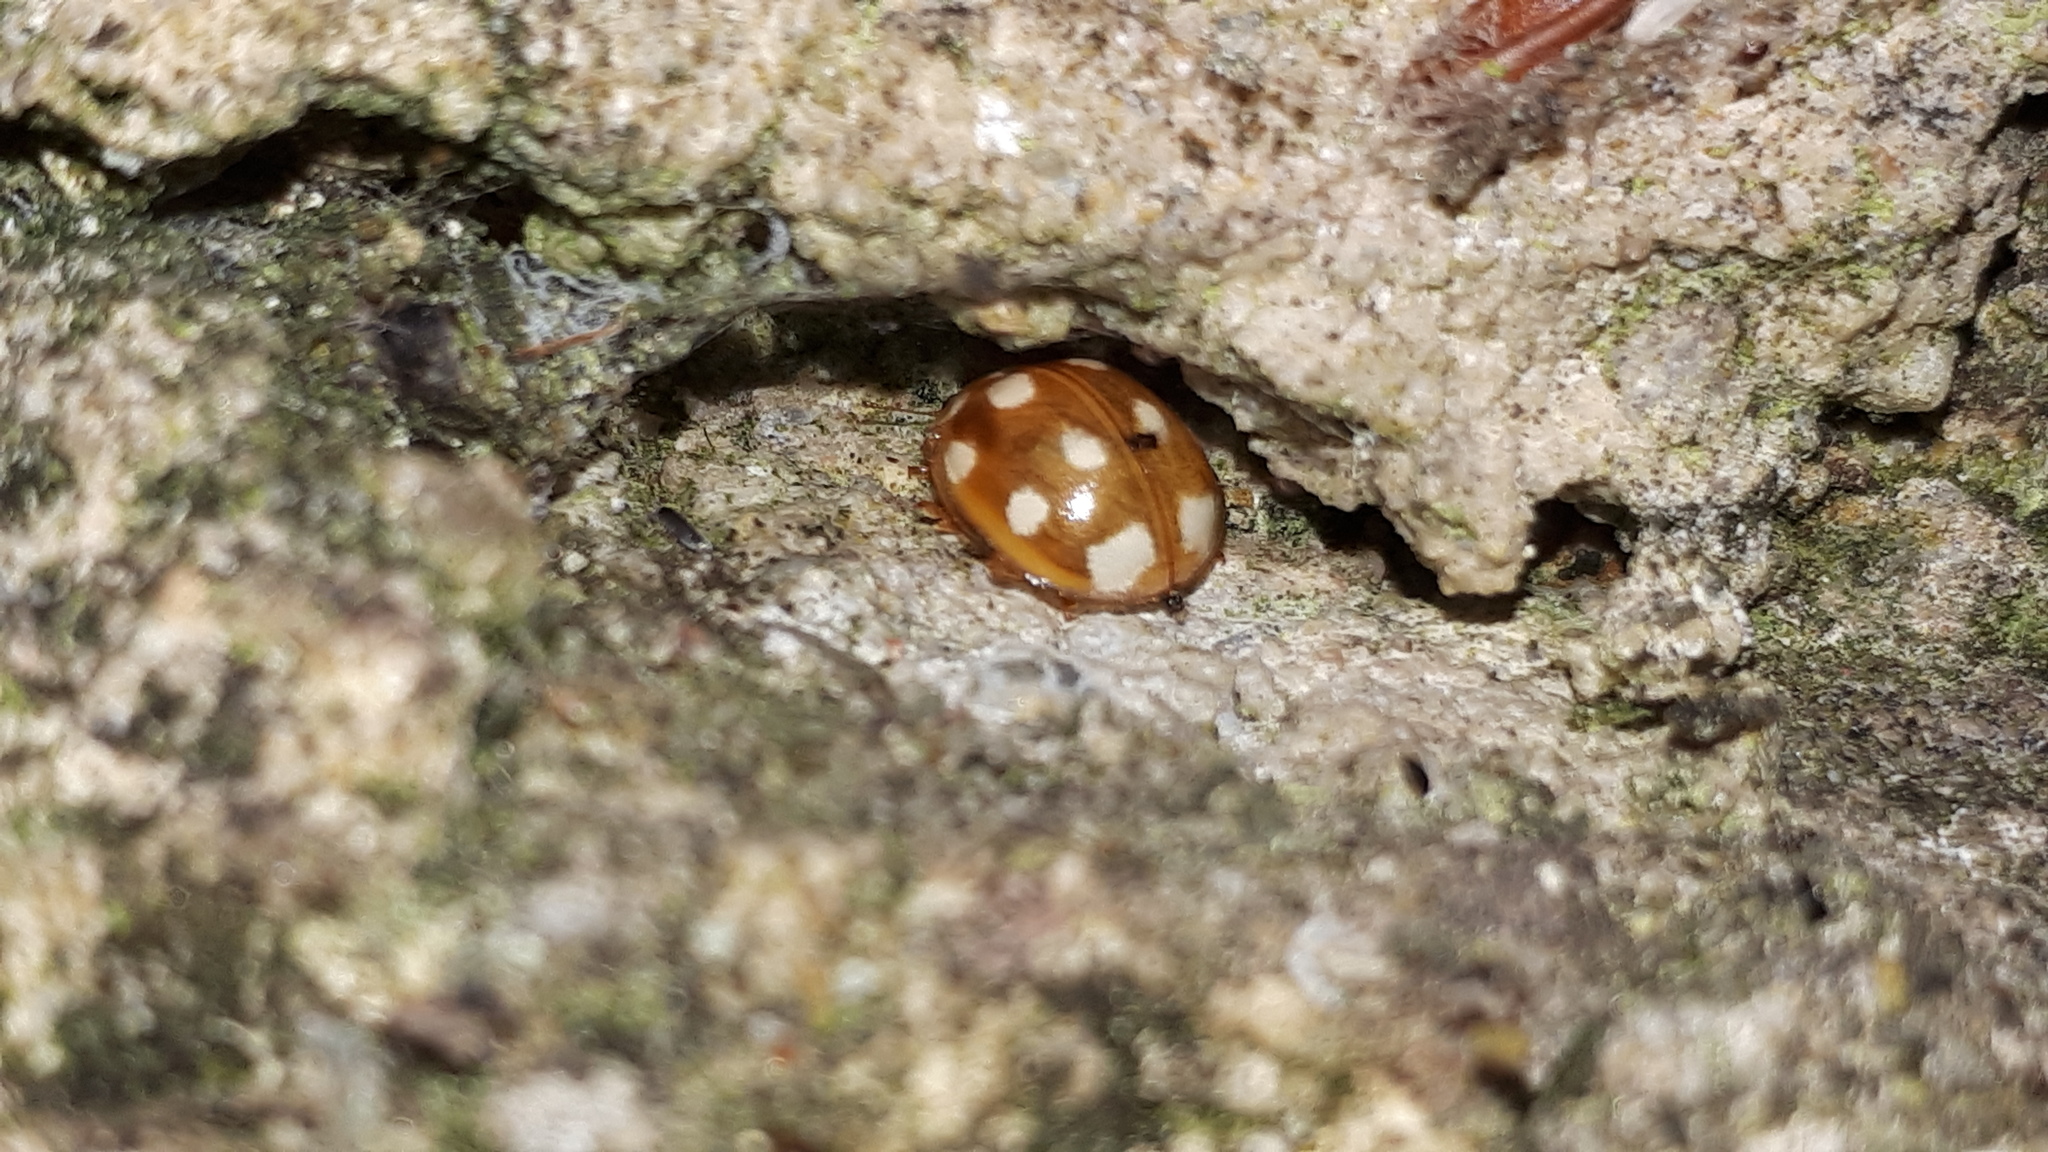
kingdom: Animalia
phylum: Arthropoda
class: Insecta
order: Coleoptera
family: Coccinellidae
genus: Calvia
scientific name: Calvia decemguttata
